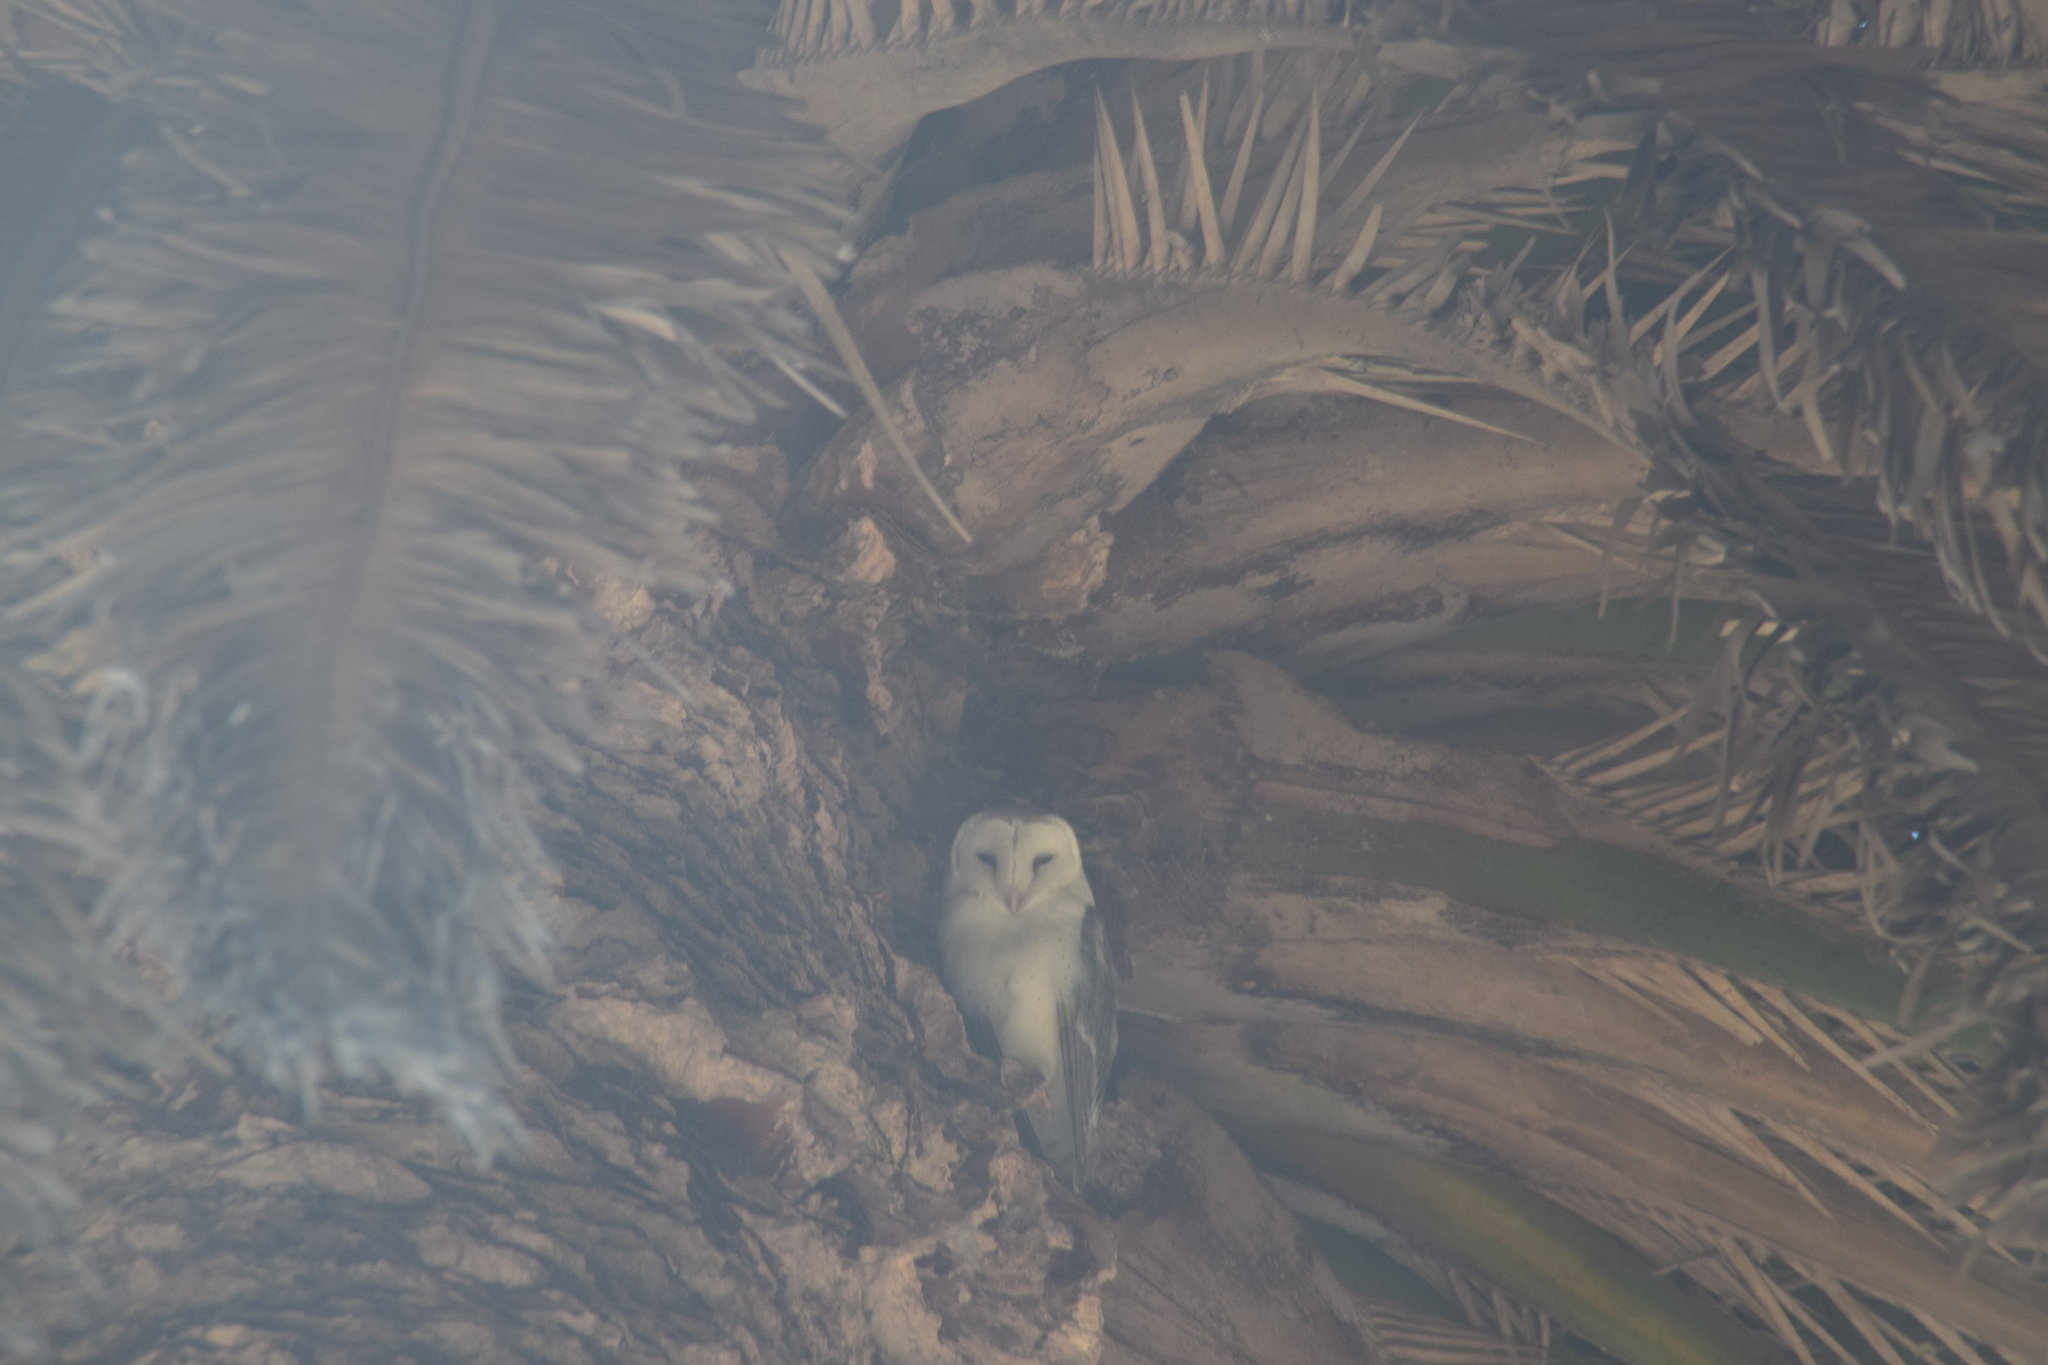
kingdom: Animalia
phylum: Chordata
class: Aves
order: Strigiformes
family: Tytonidae
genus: Tyto
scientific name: Tyto alba
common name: Barn owl
